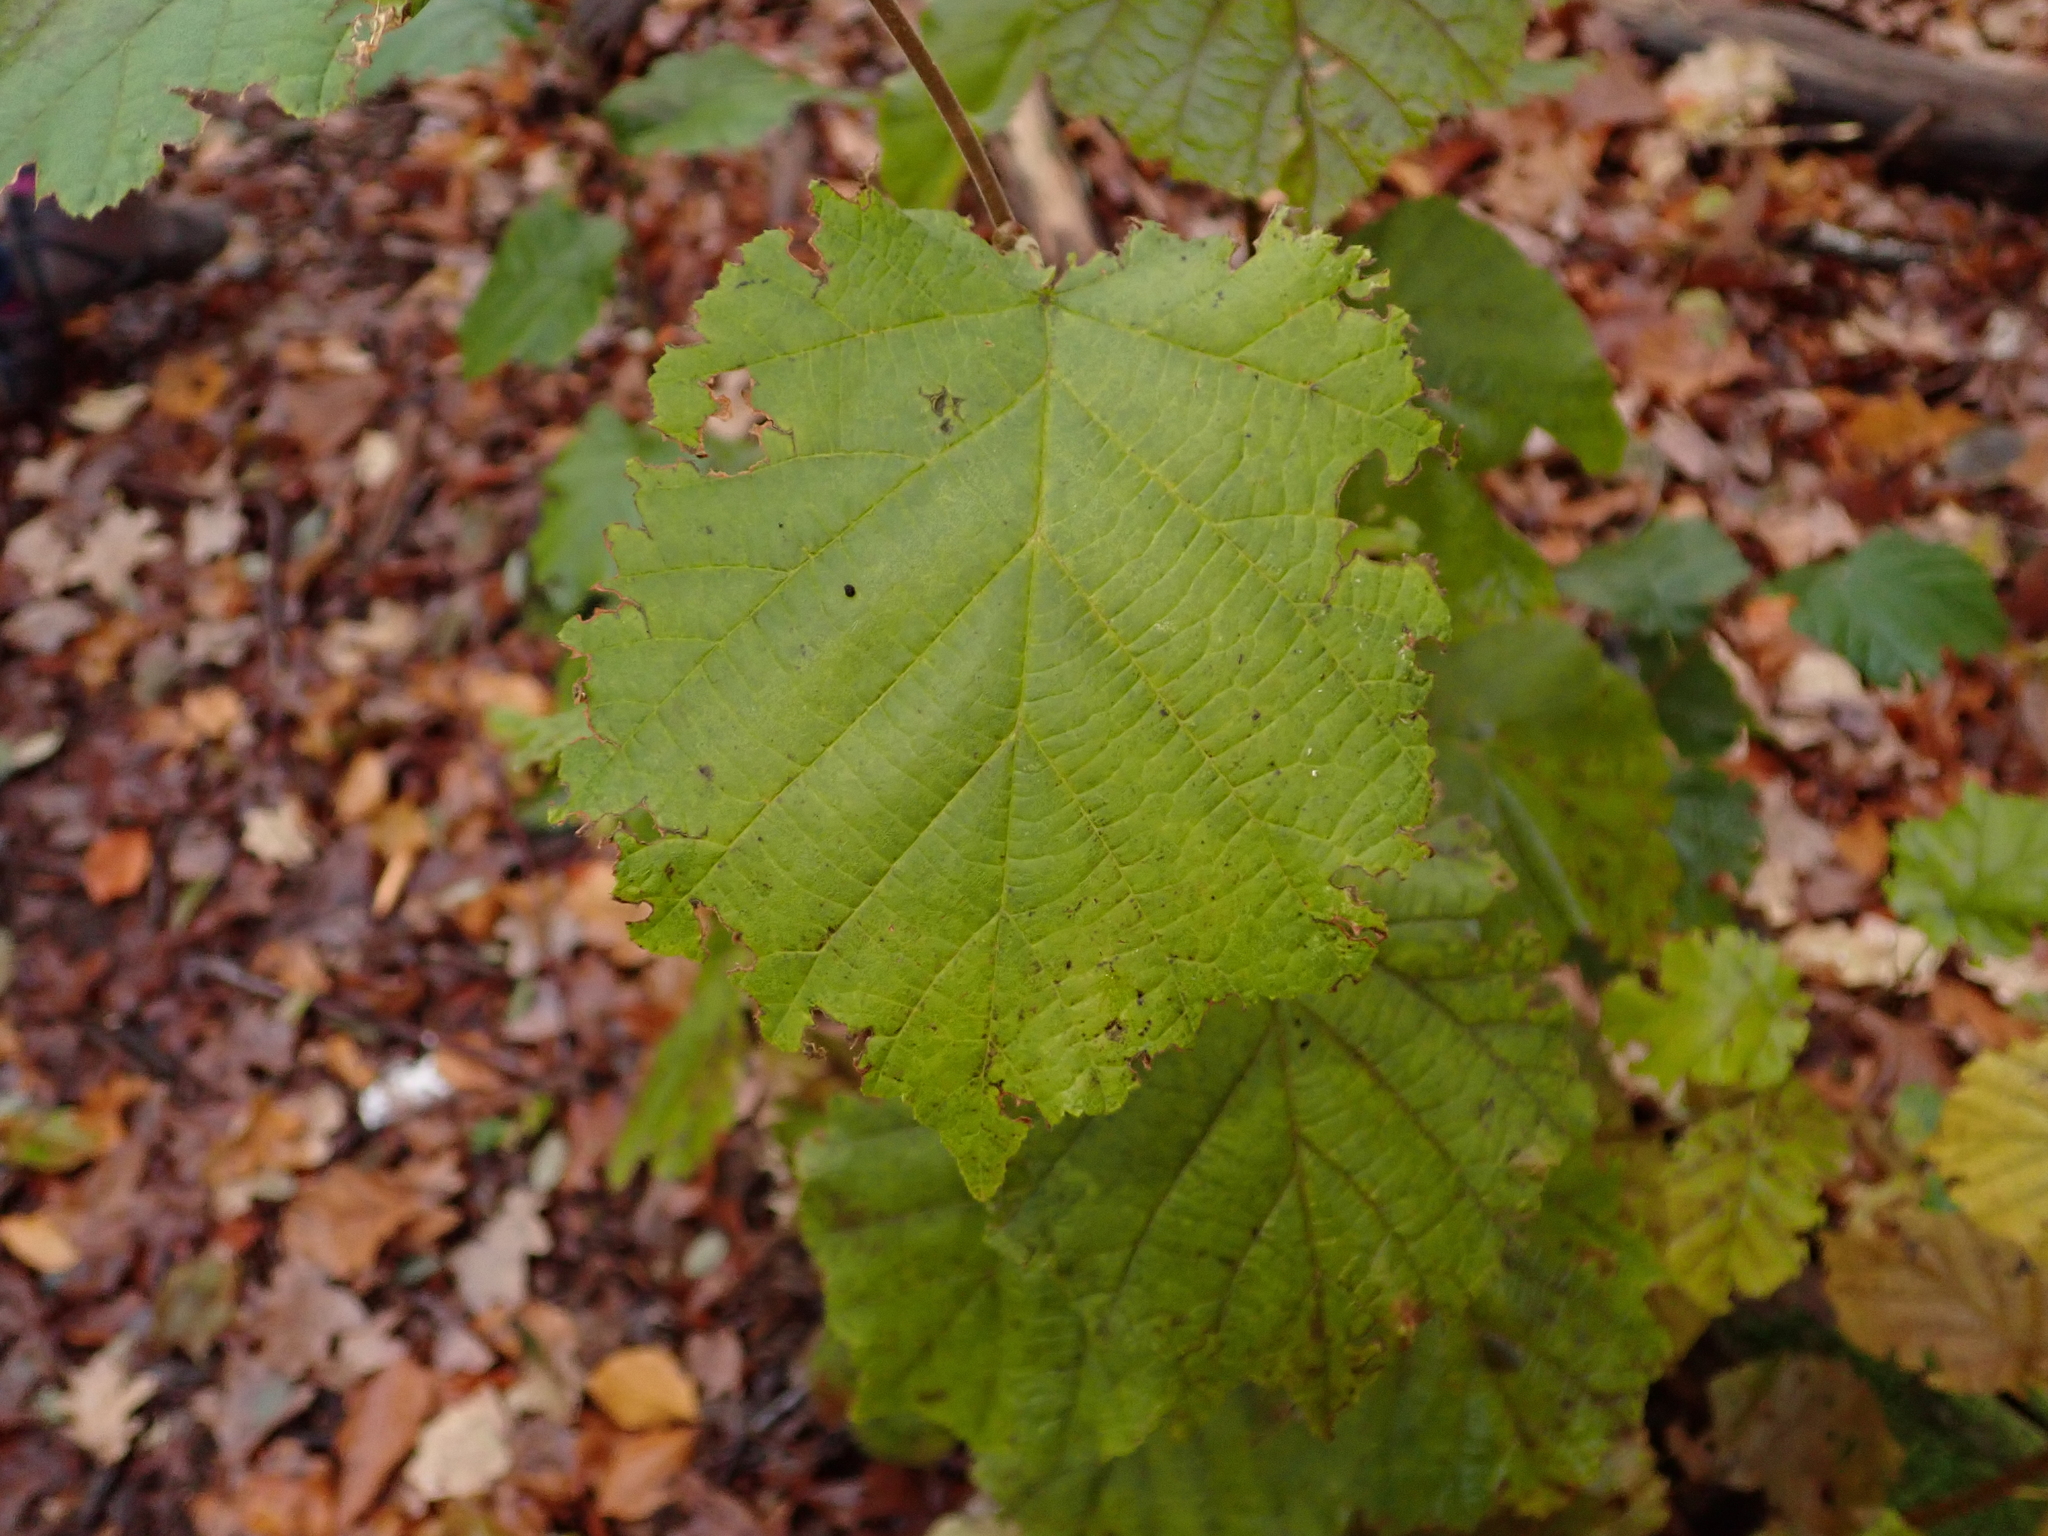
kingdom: Plantae
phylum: Tracheophyta
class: Magnoliopsida
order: Fagales
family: Betulaceae
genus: Corylus
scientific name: Corylus avellana
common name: European hazel
